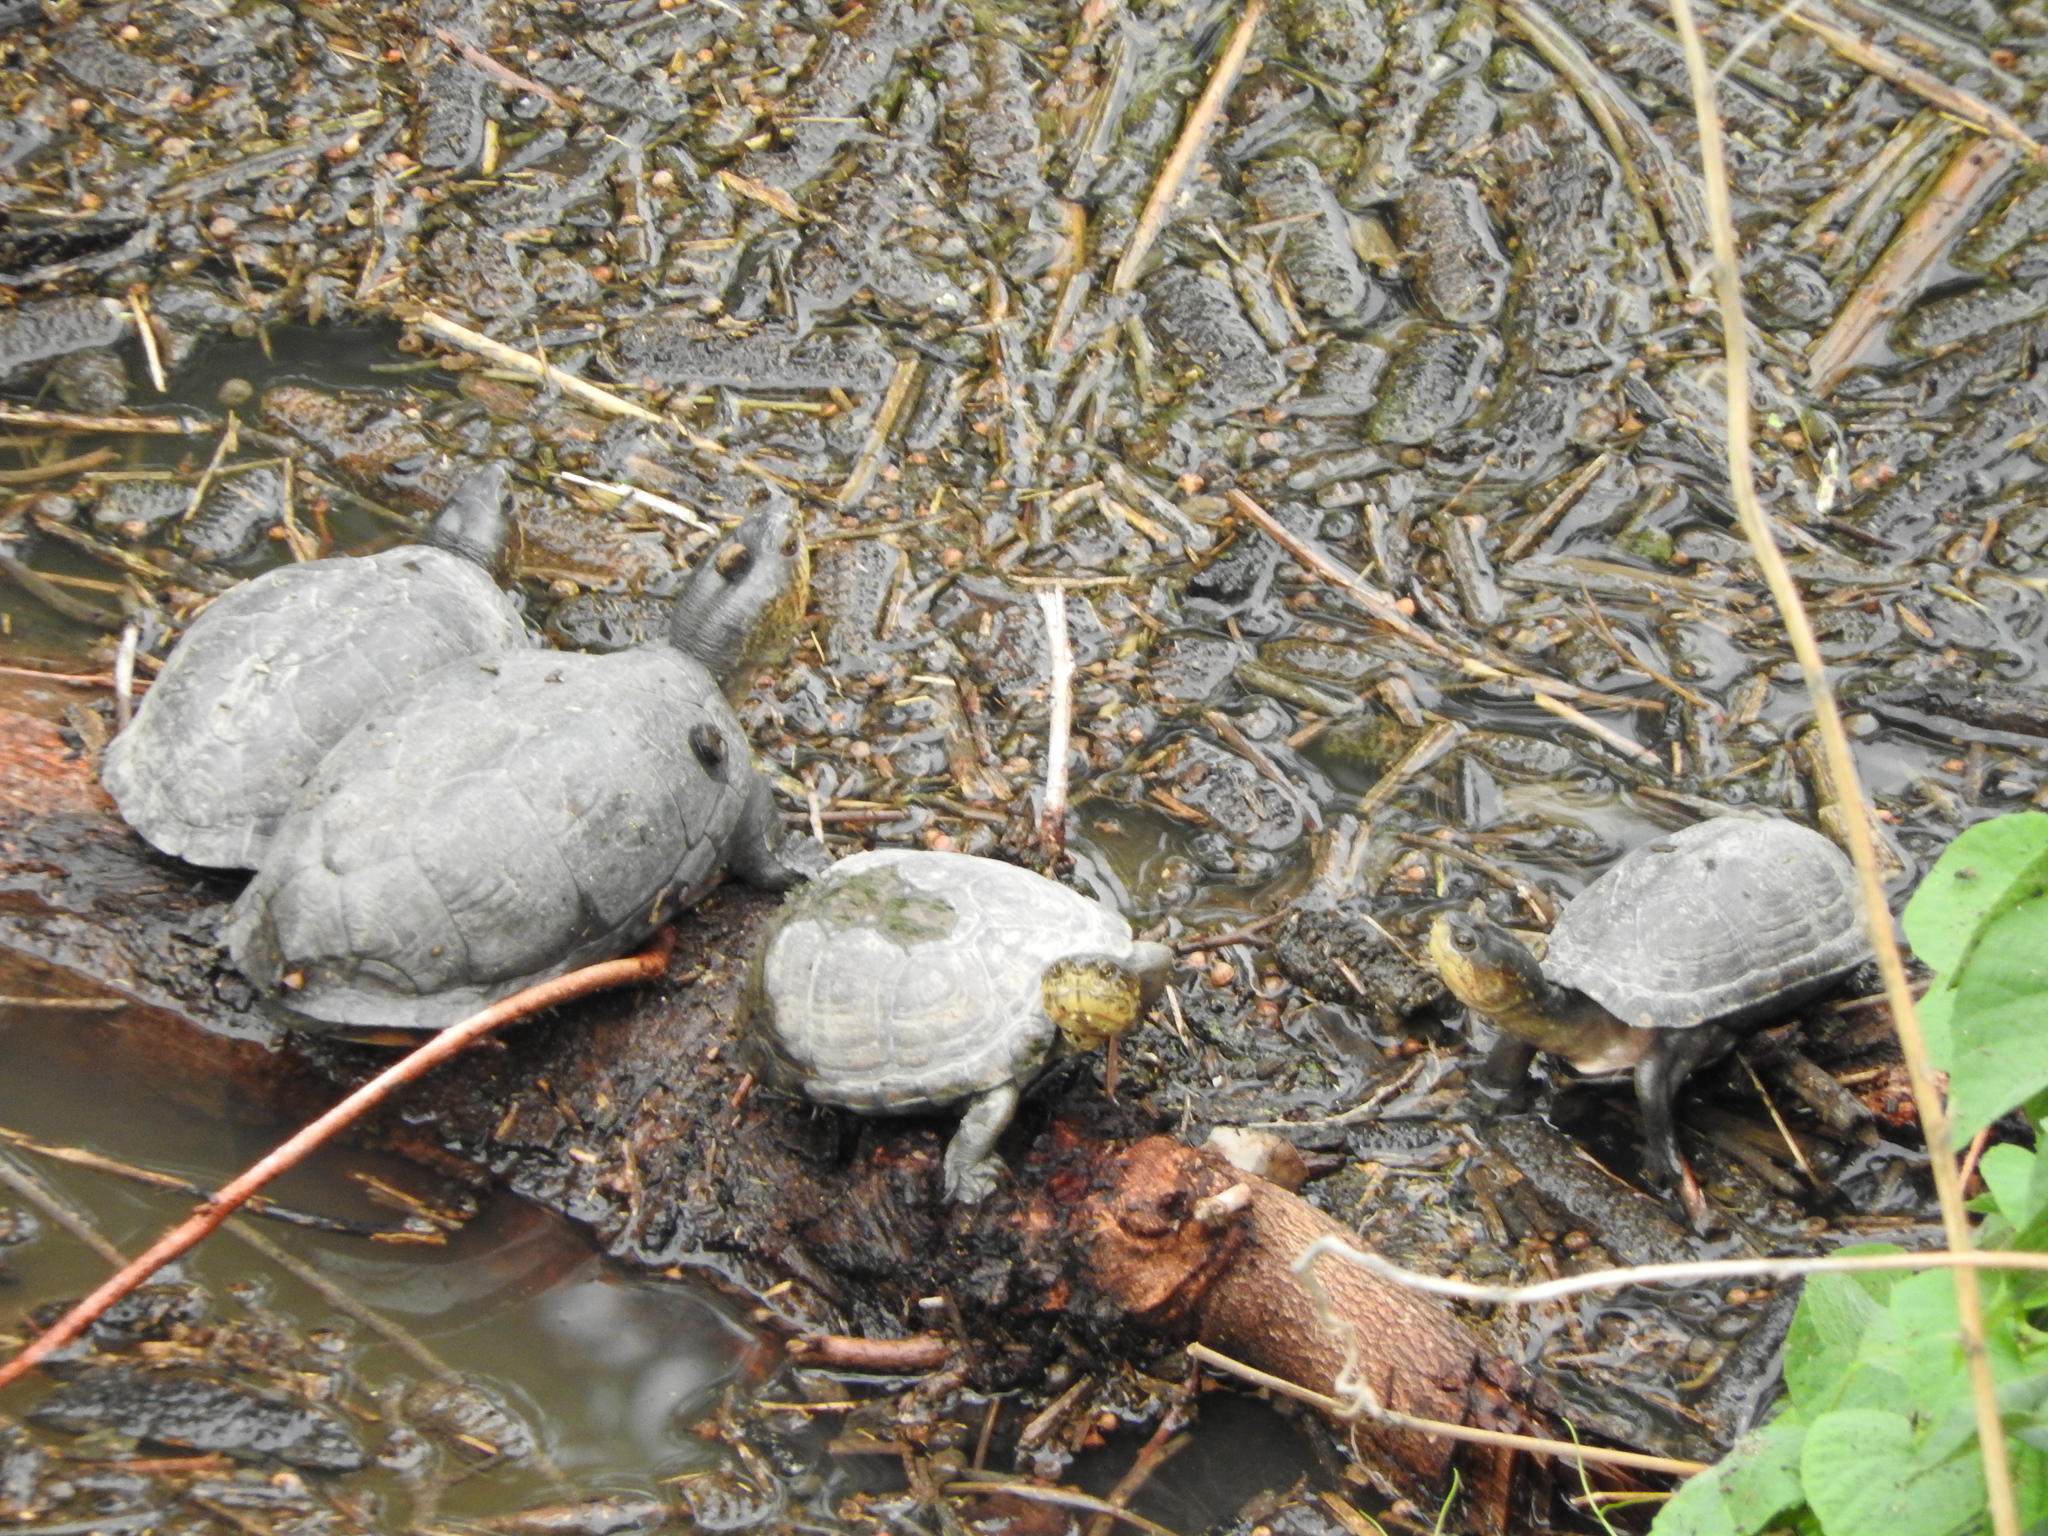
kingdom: Animalia
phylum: Chordata
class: Testudines
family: Kinosternidae
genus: Kinosternon
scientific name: Kinosternon integrum
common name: Mexican mud turtle
